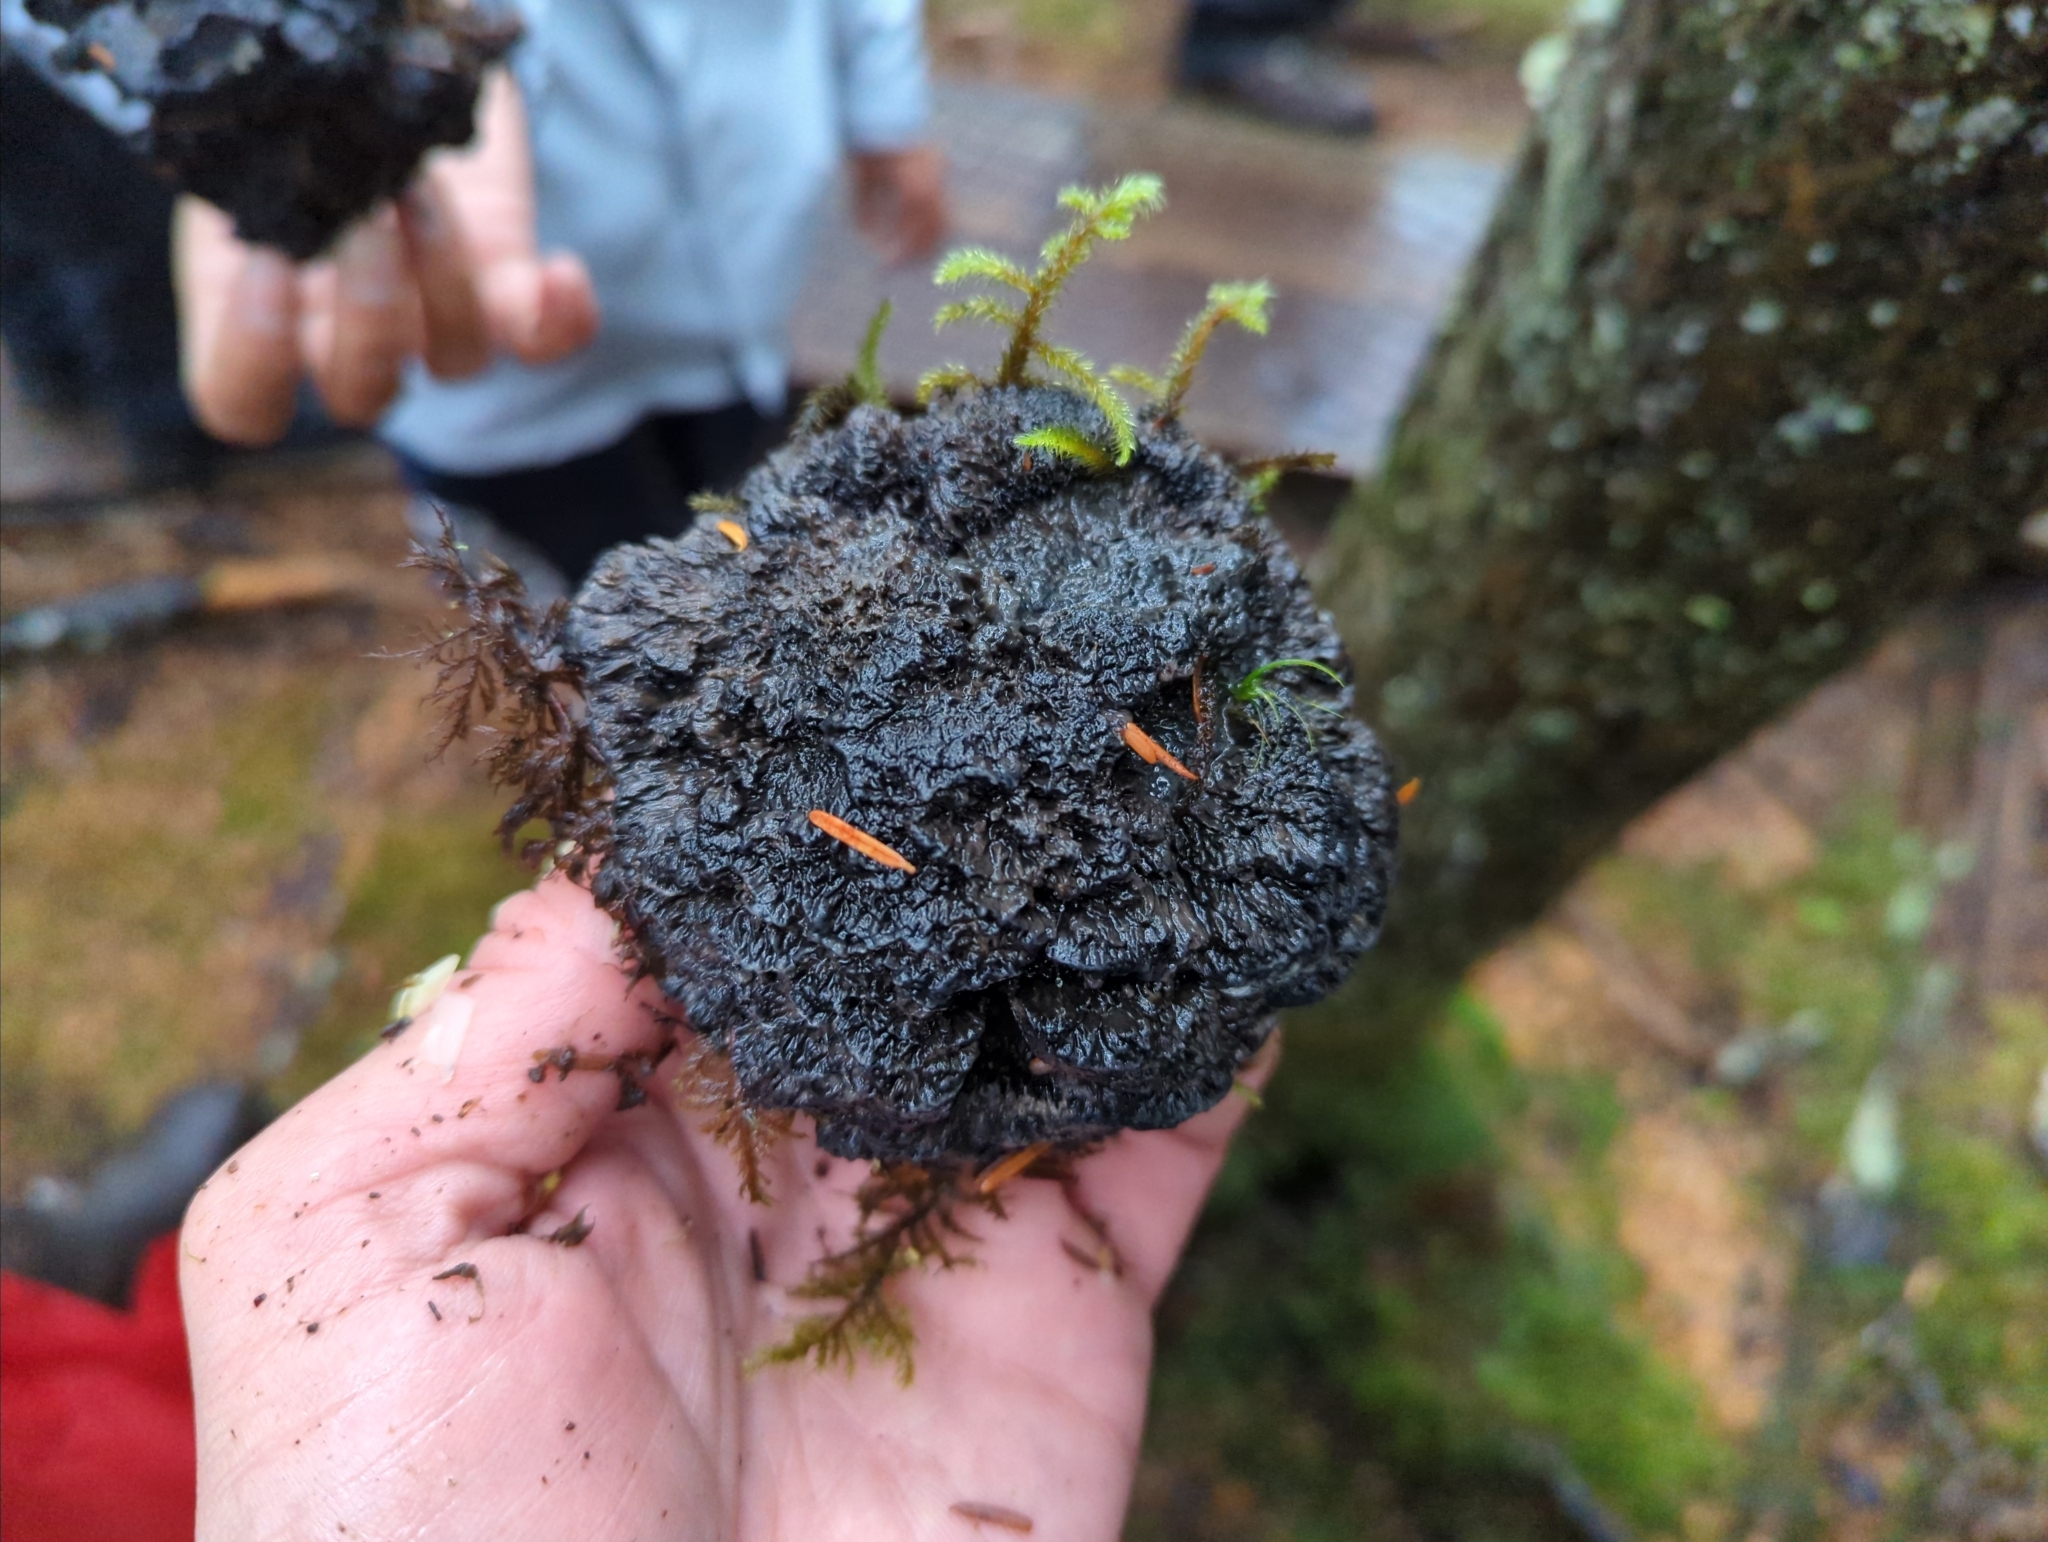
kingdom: Fungi
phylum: Basidiomycota
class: Agaricomycetes
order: Thelephorales
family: Bankeraceae
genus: Hydnellum
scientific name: Hydnellum regium
